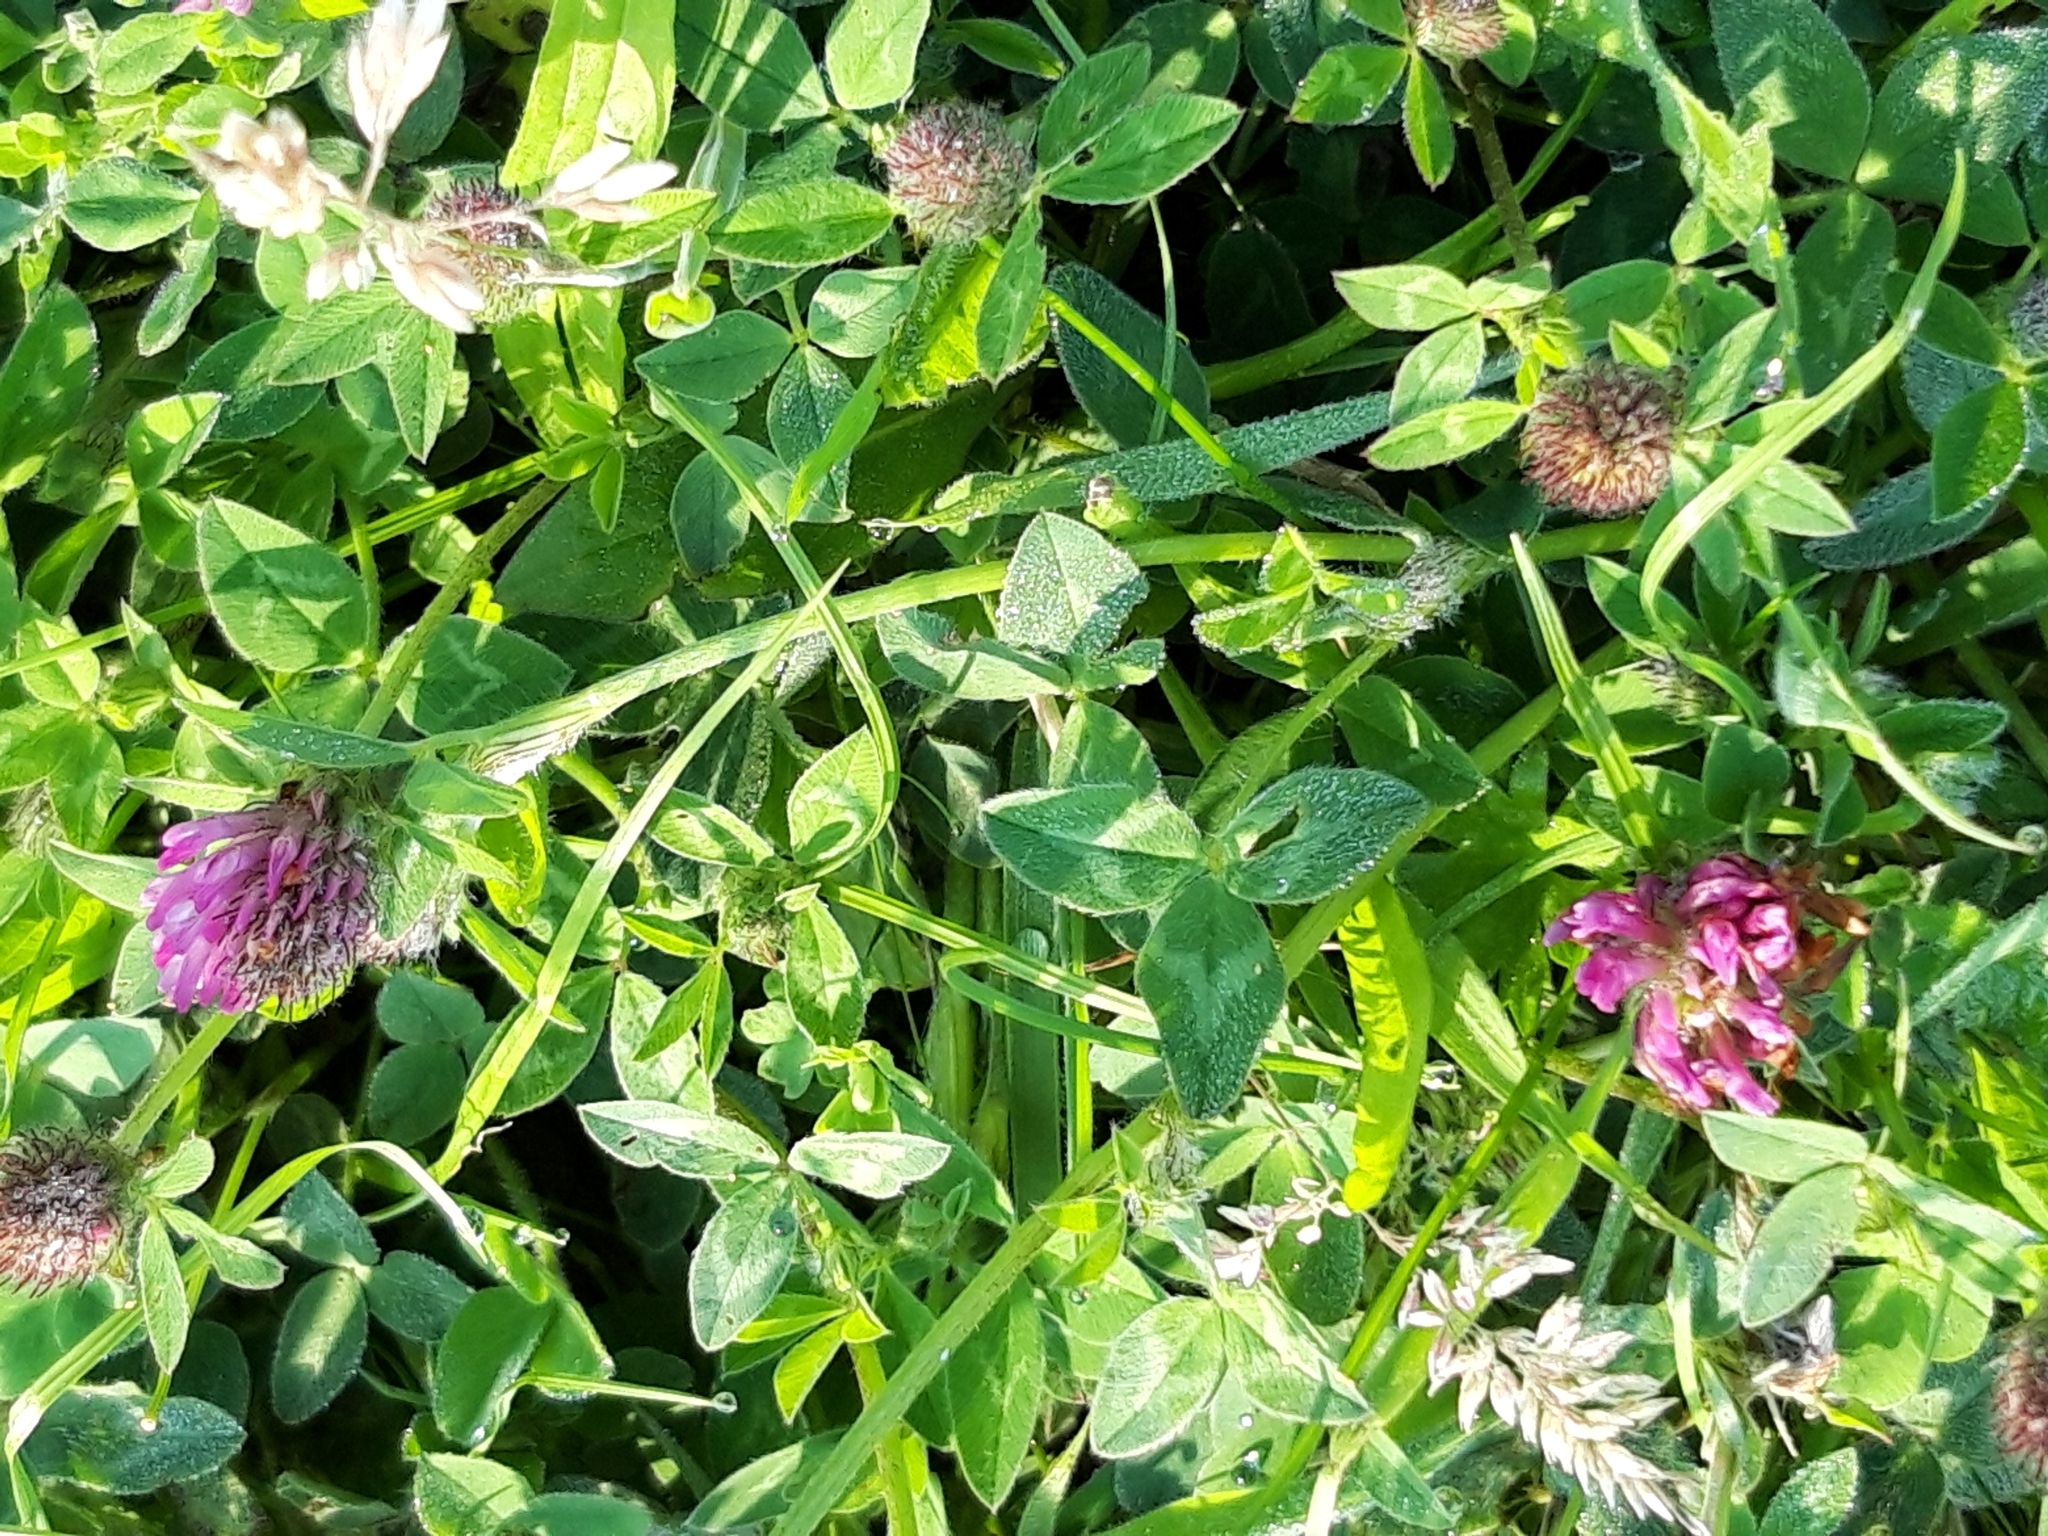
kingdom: Plantae
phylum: Tracheophyta
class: Magnoliopsida
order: Fabales
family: Fabaceae
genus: Trifolium
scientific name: Trifolium pratense
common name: Red clover
